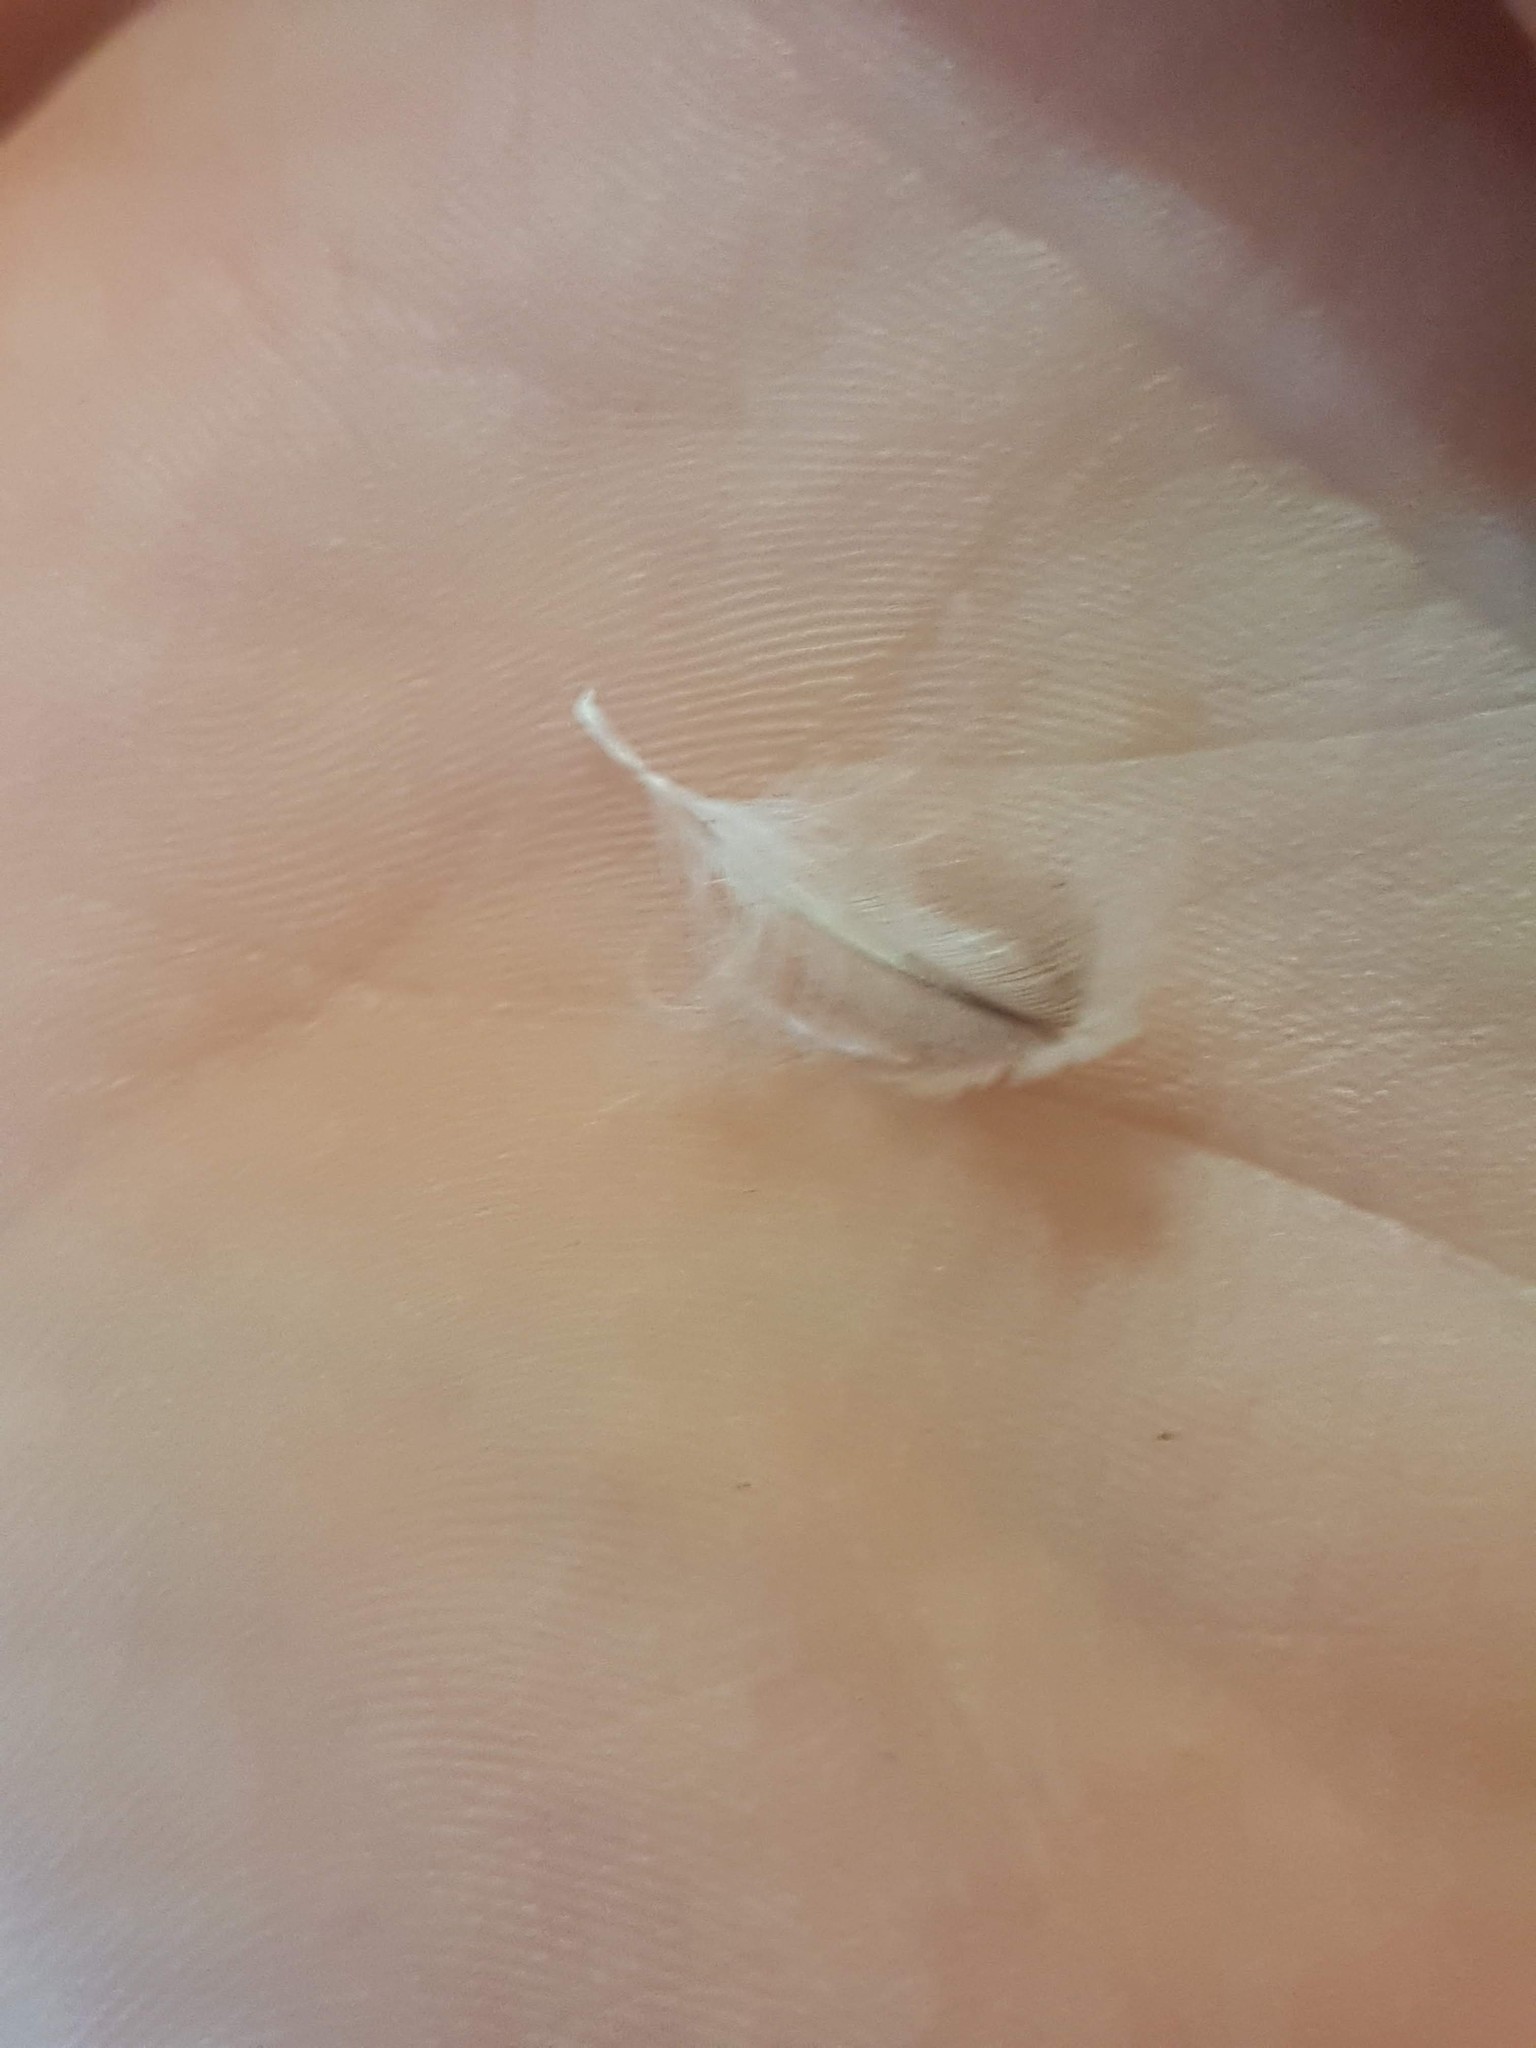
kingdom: Animalia
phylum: Chordata
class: Aves
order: Sphenisciformes
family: Spheniscidae
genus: Eudyptula
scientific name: Eudyptula minor
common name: Little penguin
